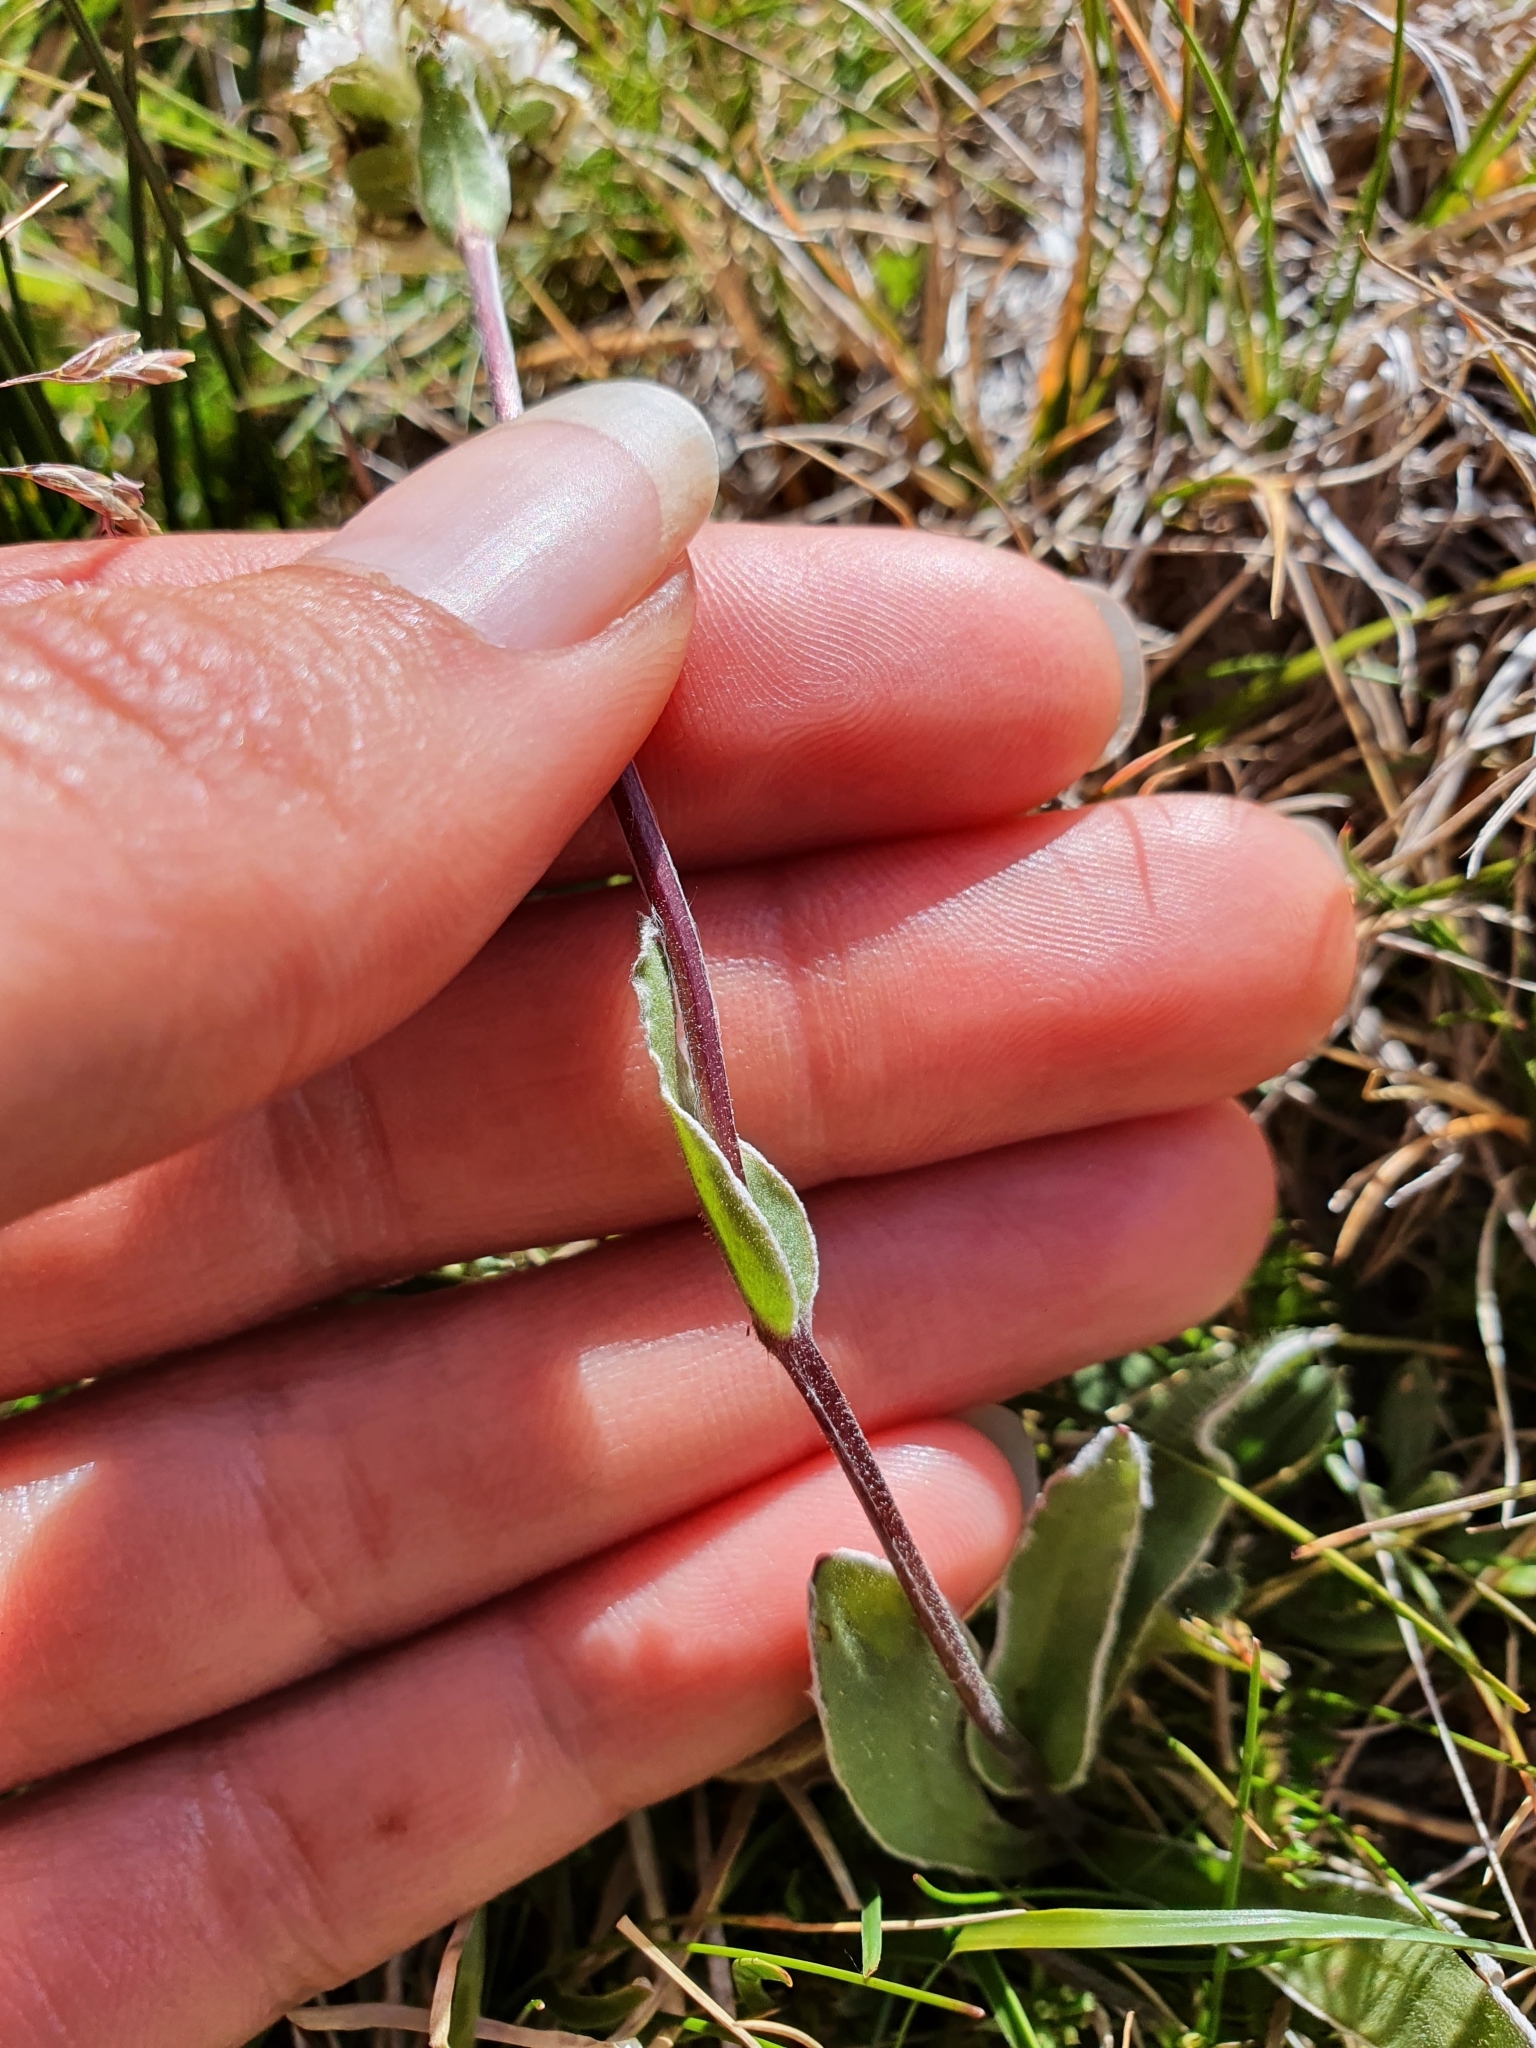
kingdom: Plantae
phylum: Tracheophyta
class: Magnoliopsida
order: Asterales
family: Asteraceae
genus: Craspedia
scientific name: Craspedia uniflora
